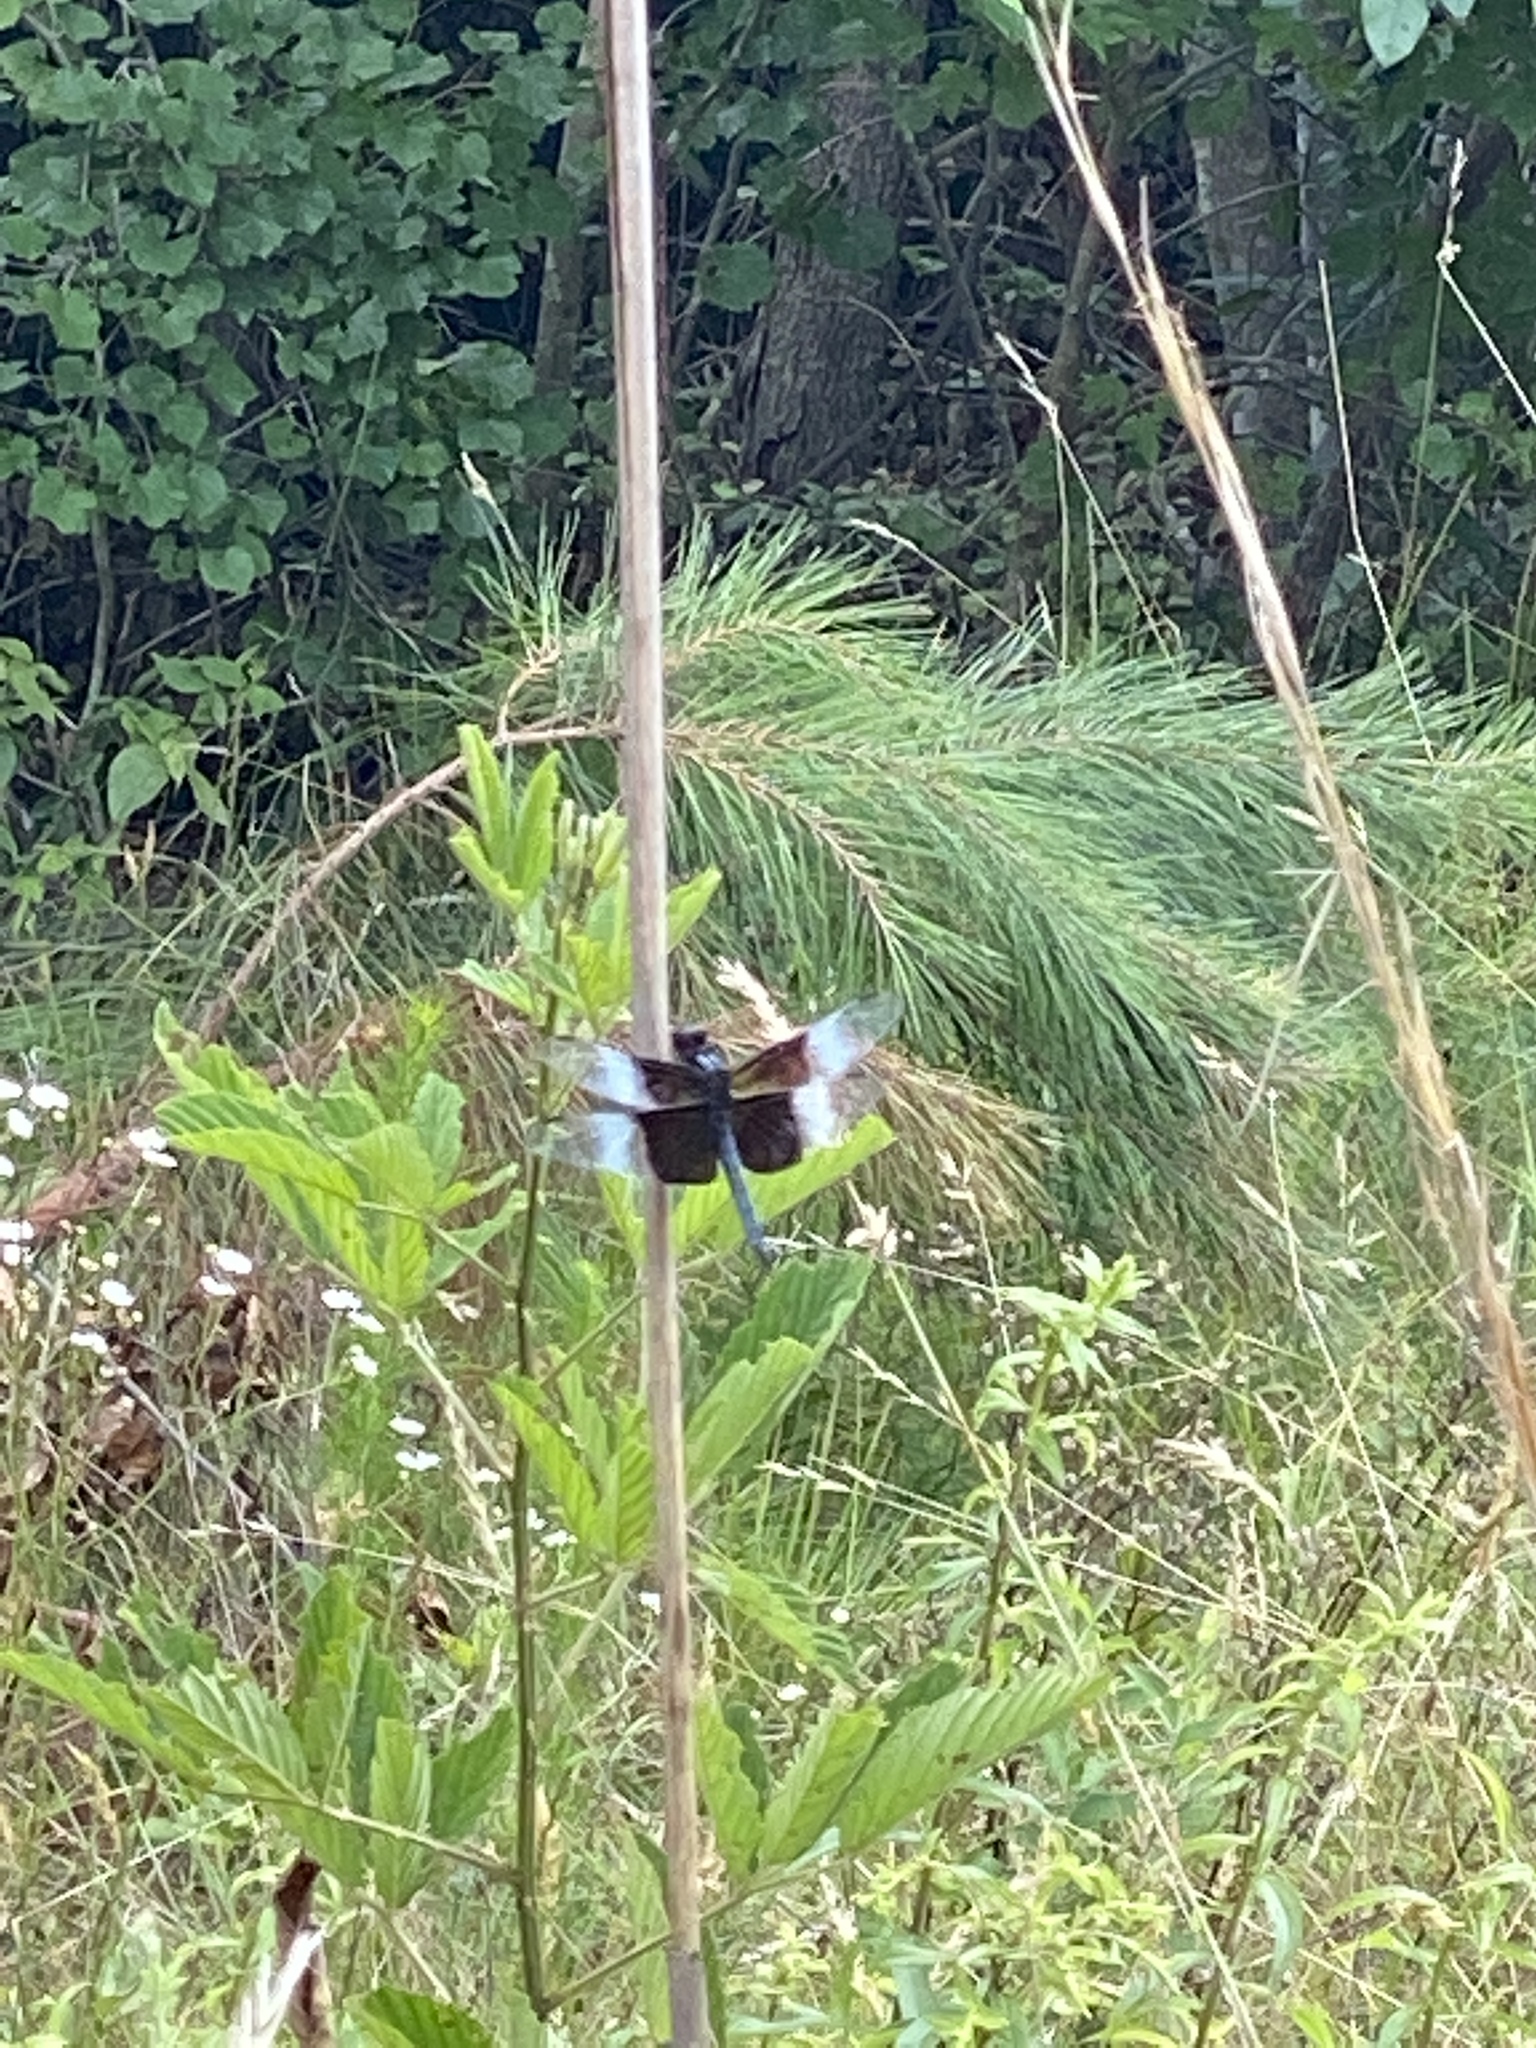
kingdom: Animalia
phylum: Arthropoda
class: Insecta
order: Odonata
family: Libellulidae
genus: Libellula
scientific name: Libellula luctuosa
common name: Widow skimmer
